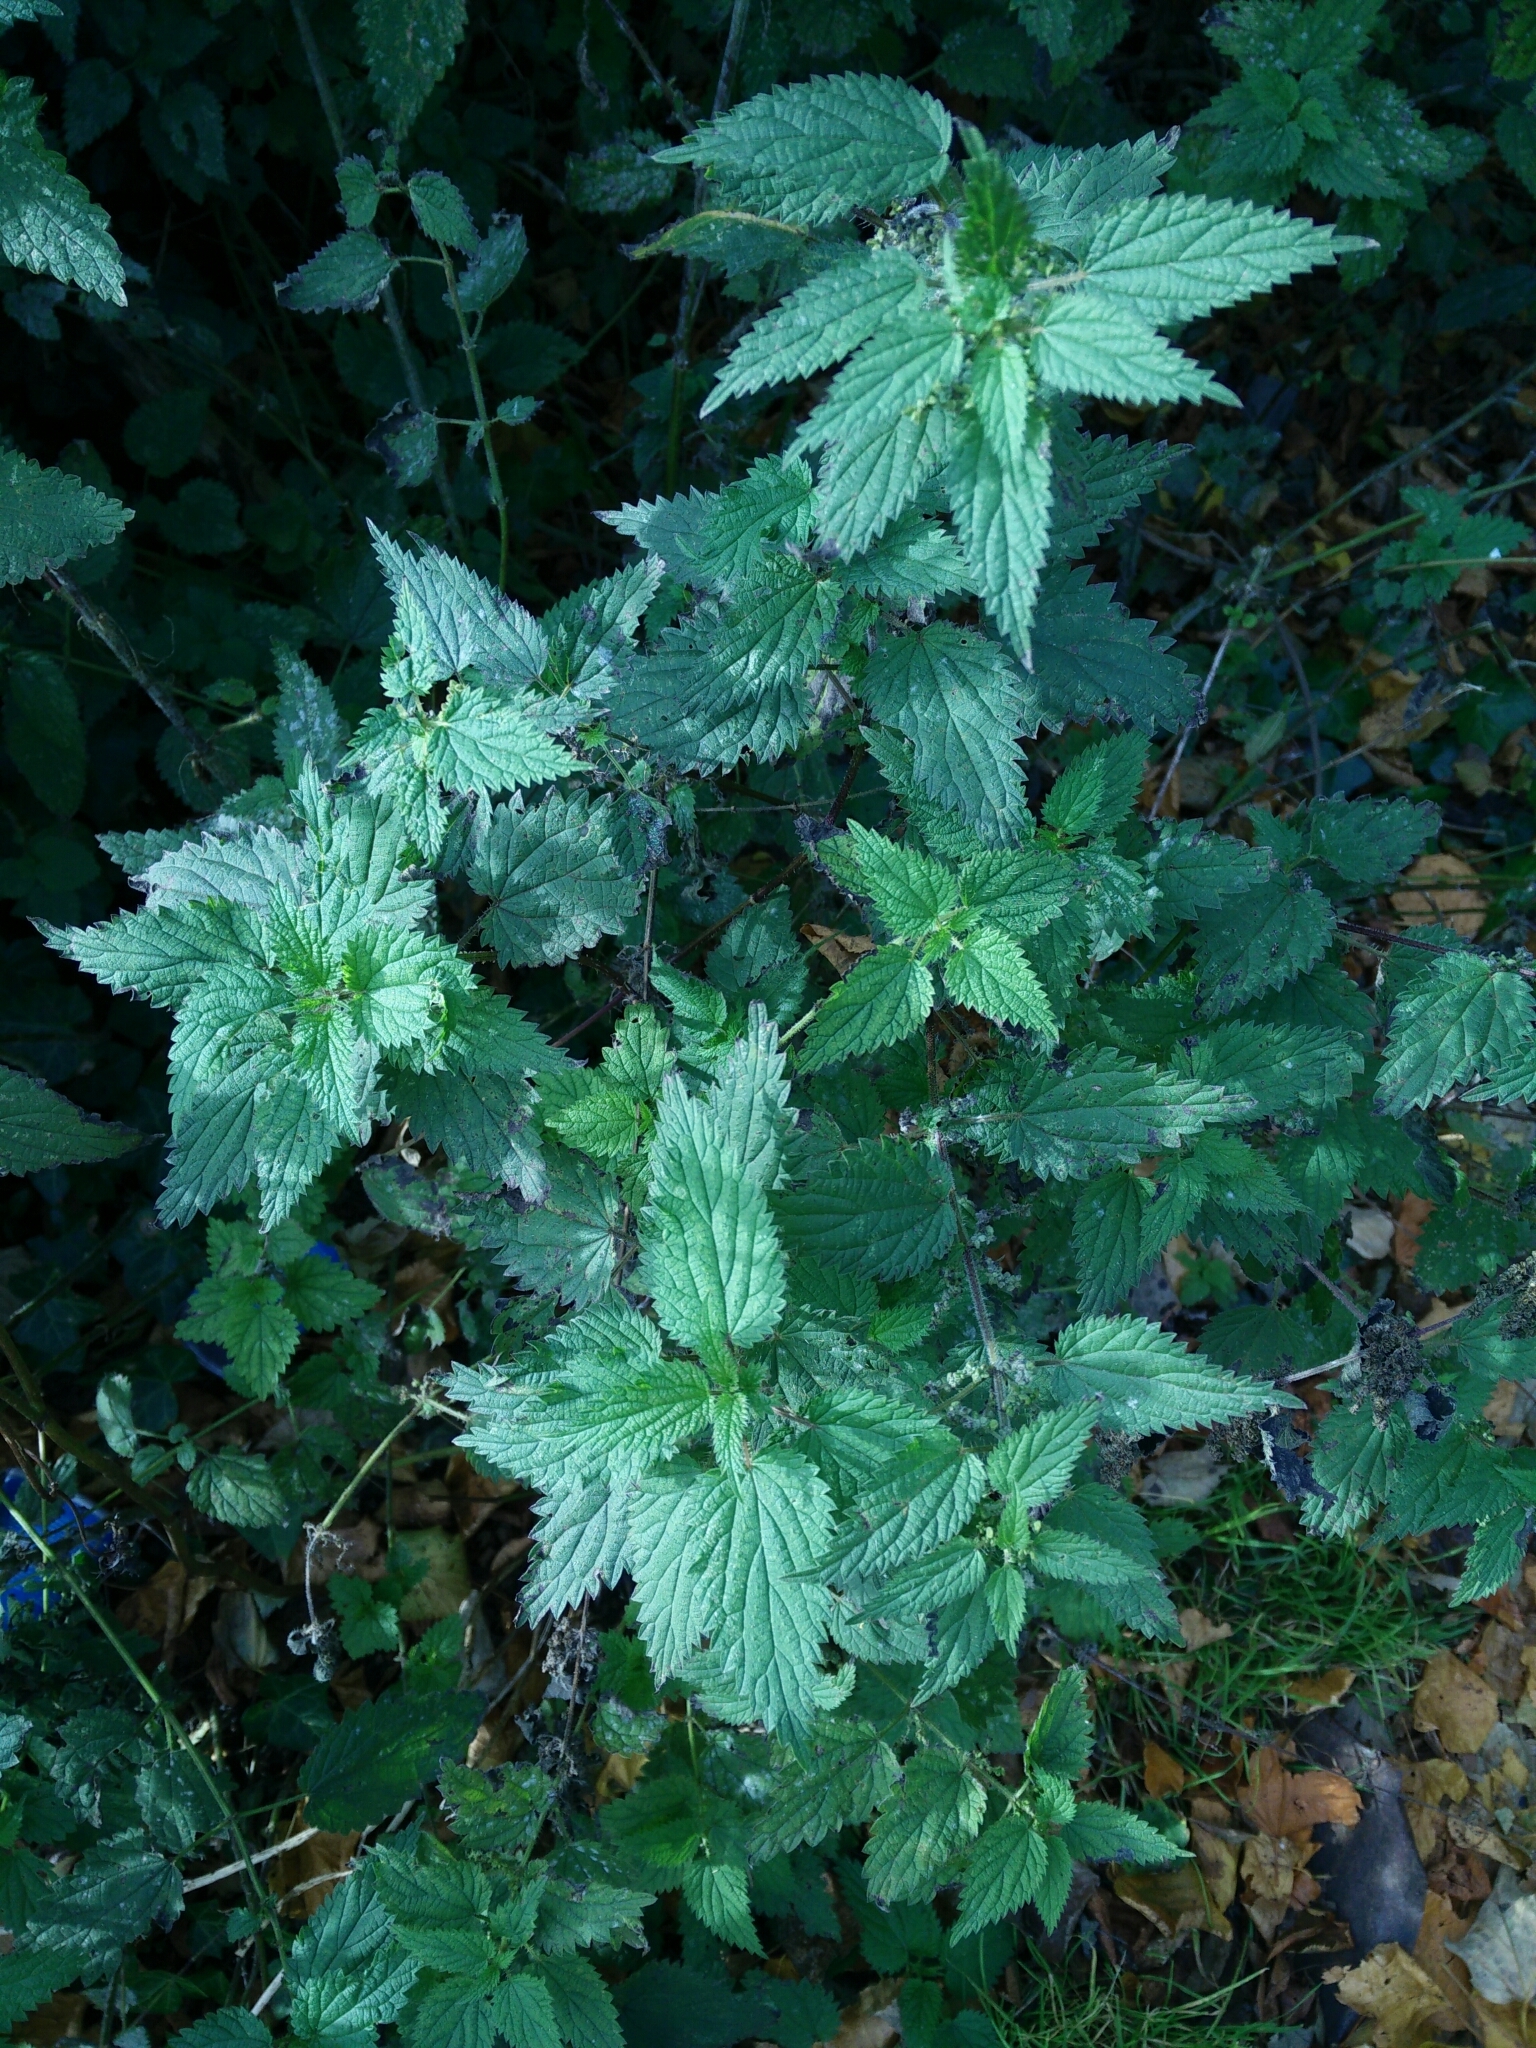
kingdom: Plantae
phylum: Tracheophyta
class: Magnoliopsida
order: Rosales
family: Urticaceae
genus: Urtica
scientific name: Urtica dioica
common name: Common nettle
